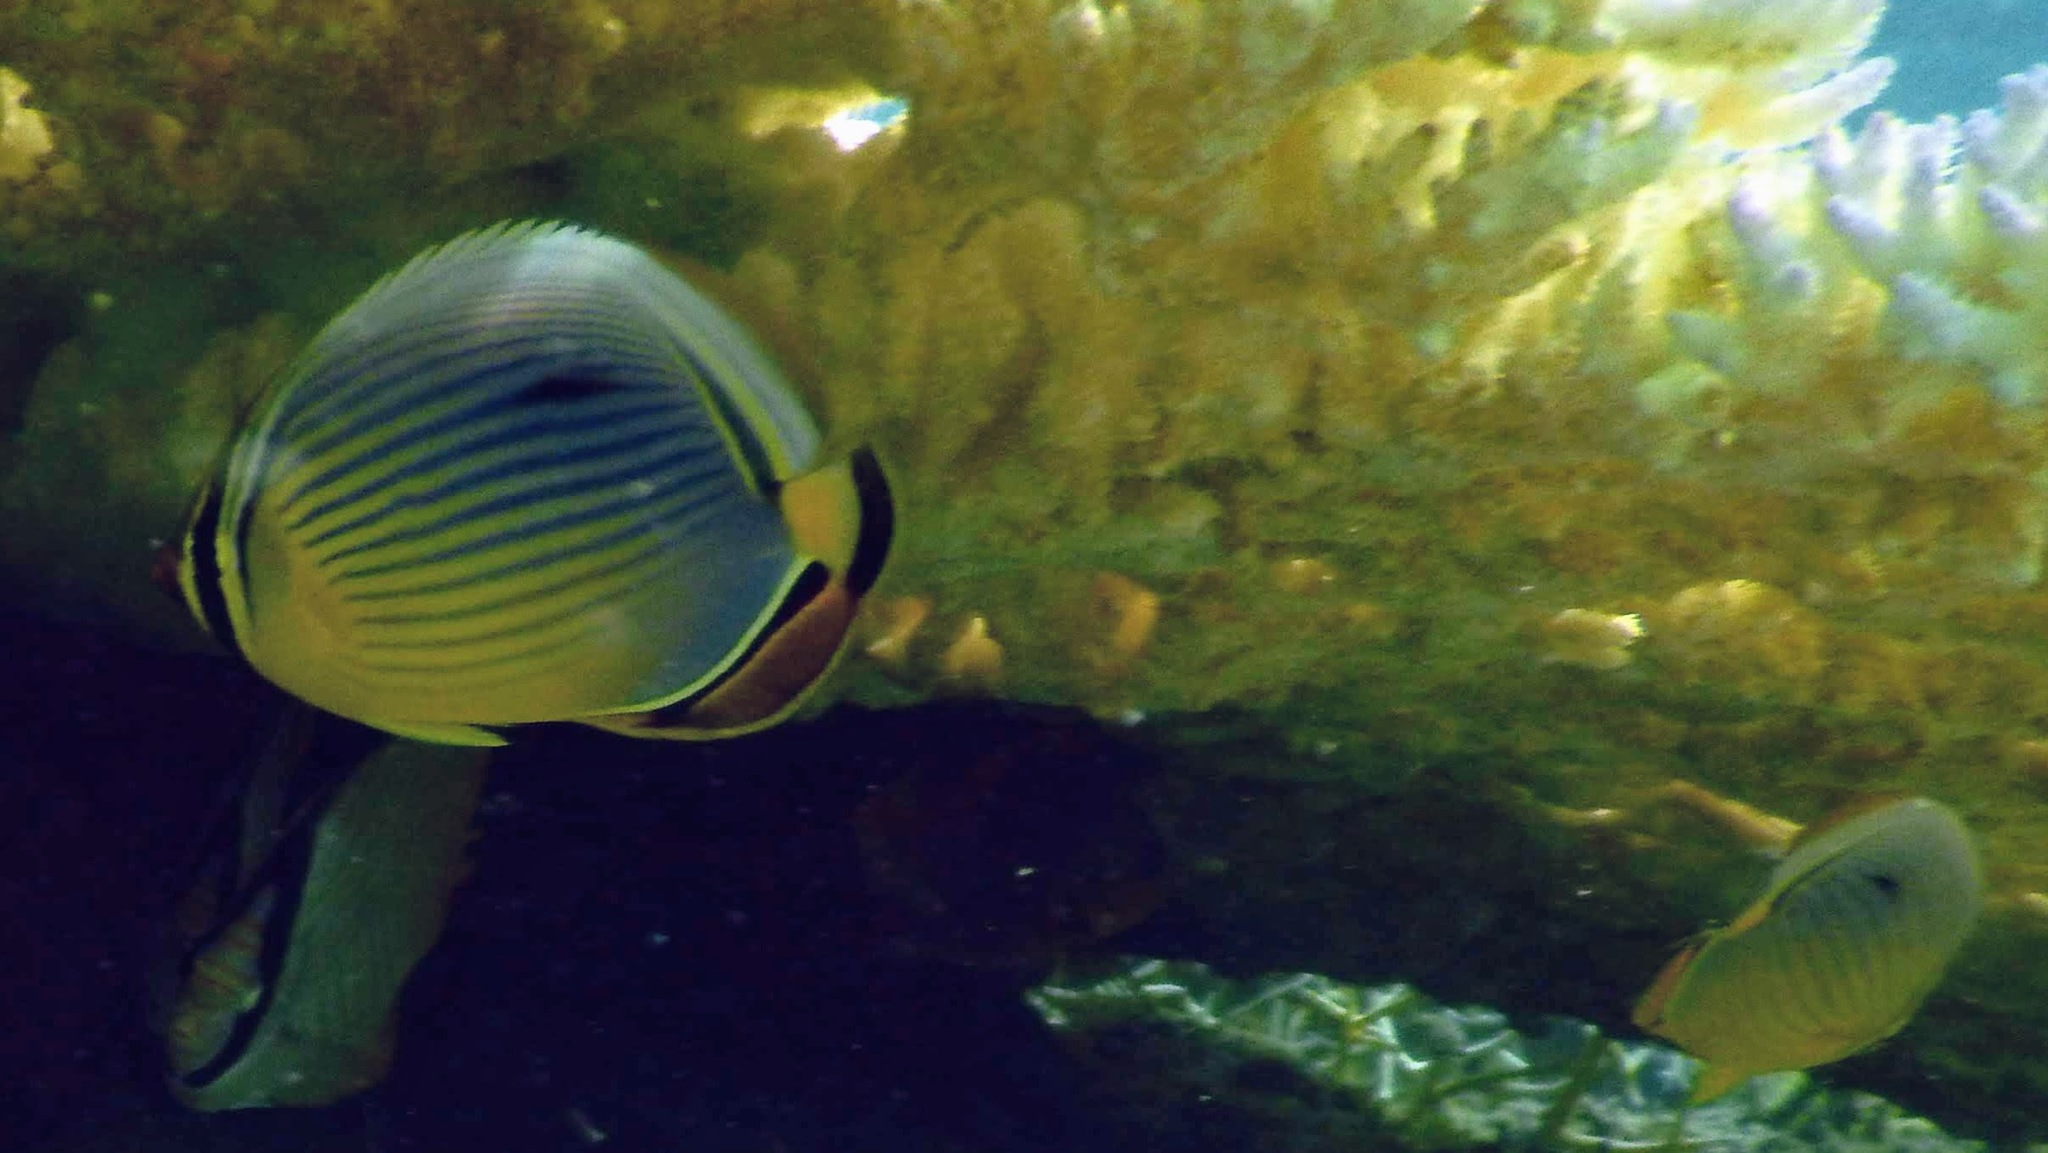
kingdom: Animalia
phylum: Chordata
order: Perciformes
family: Chaetodontidae
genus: Chaetodon
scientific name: Chaetodon trifasciatus
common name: Redfin butterflyfish
